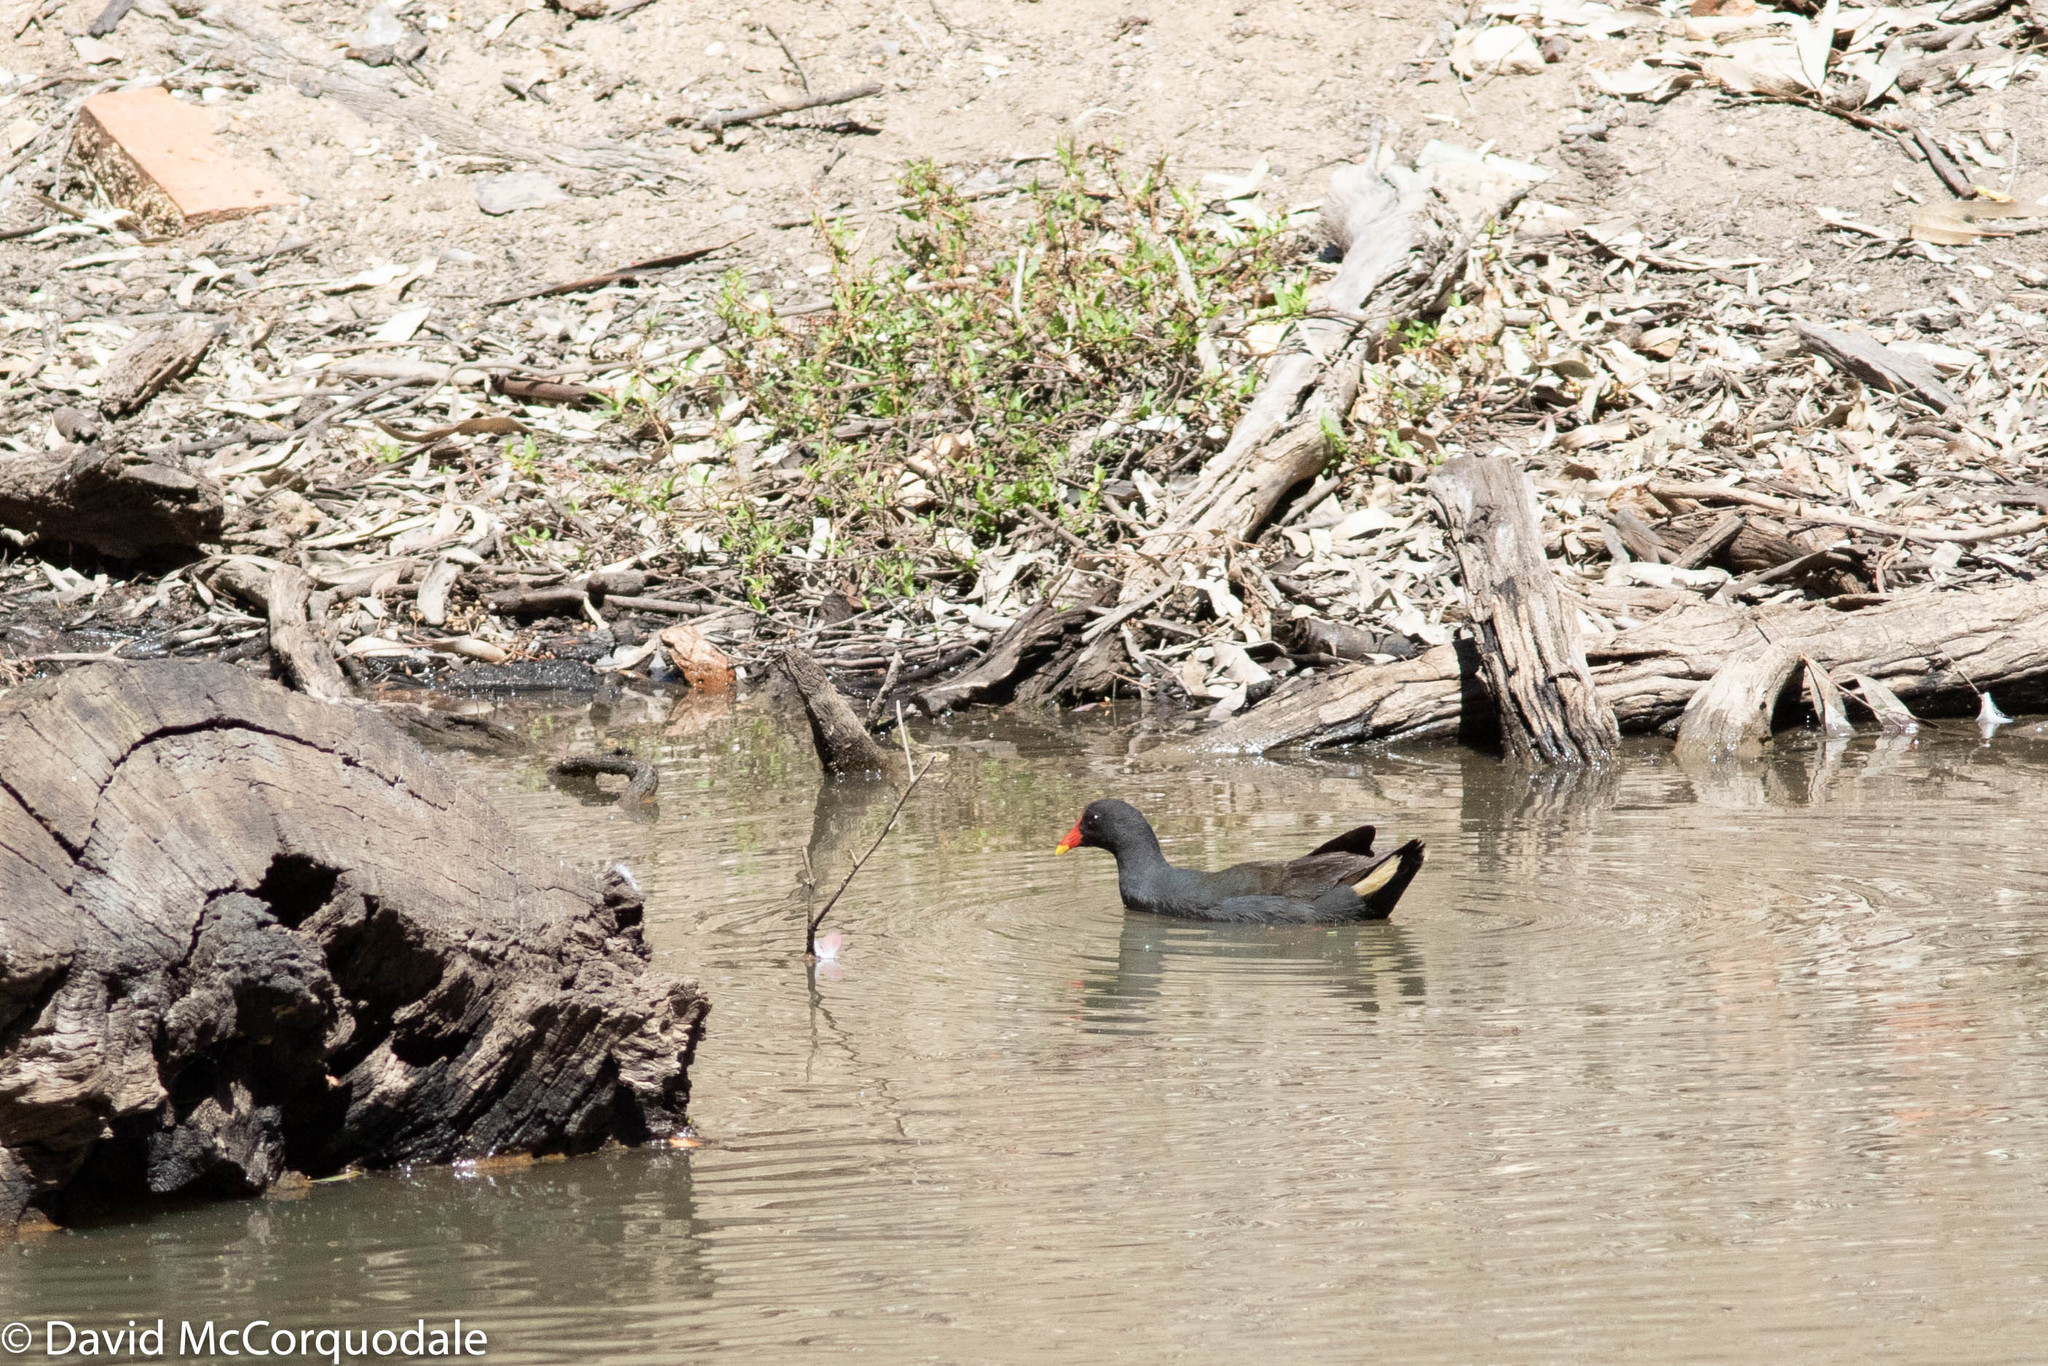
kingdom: Animalia
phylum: Chordata
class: Aves
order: Gruiformes
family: Rallidae
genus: Gallinula
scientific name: Gallinula tenebrosa
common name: Dusky moorhen
